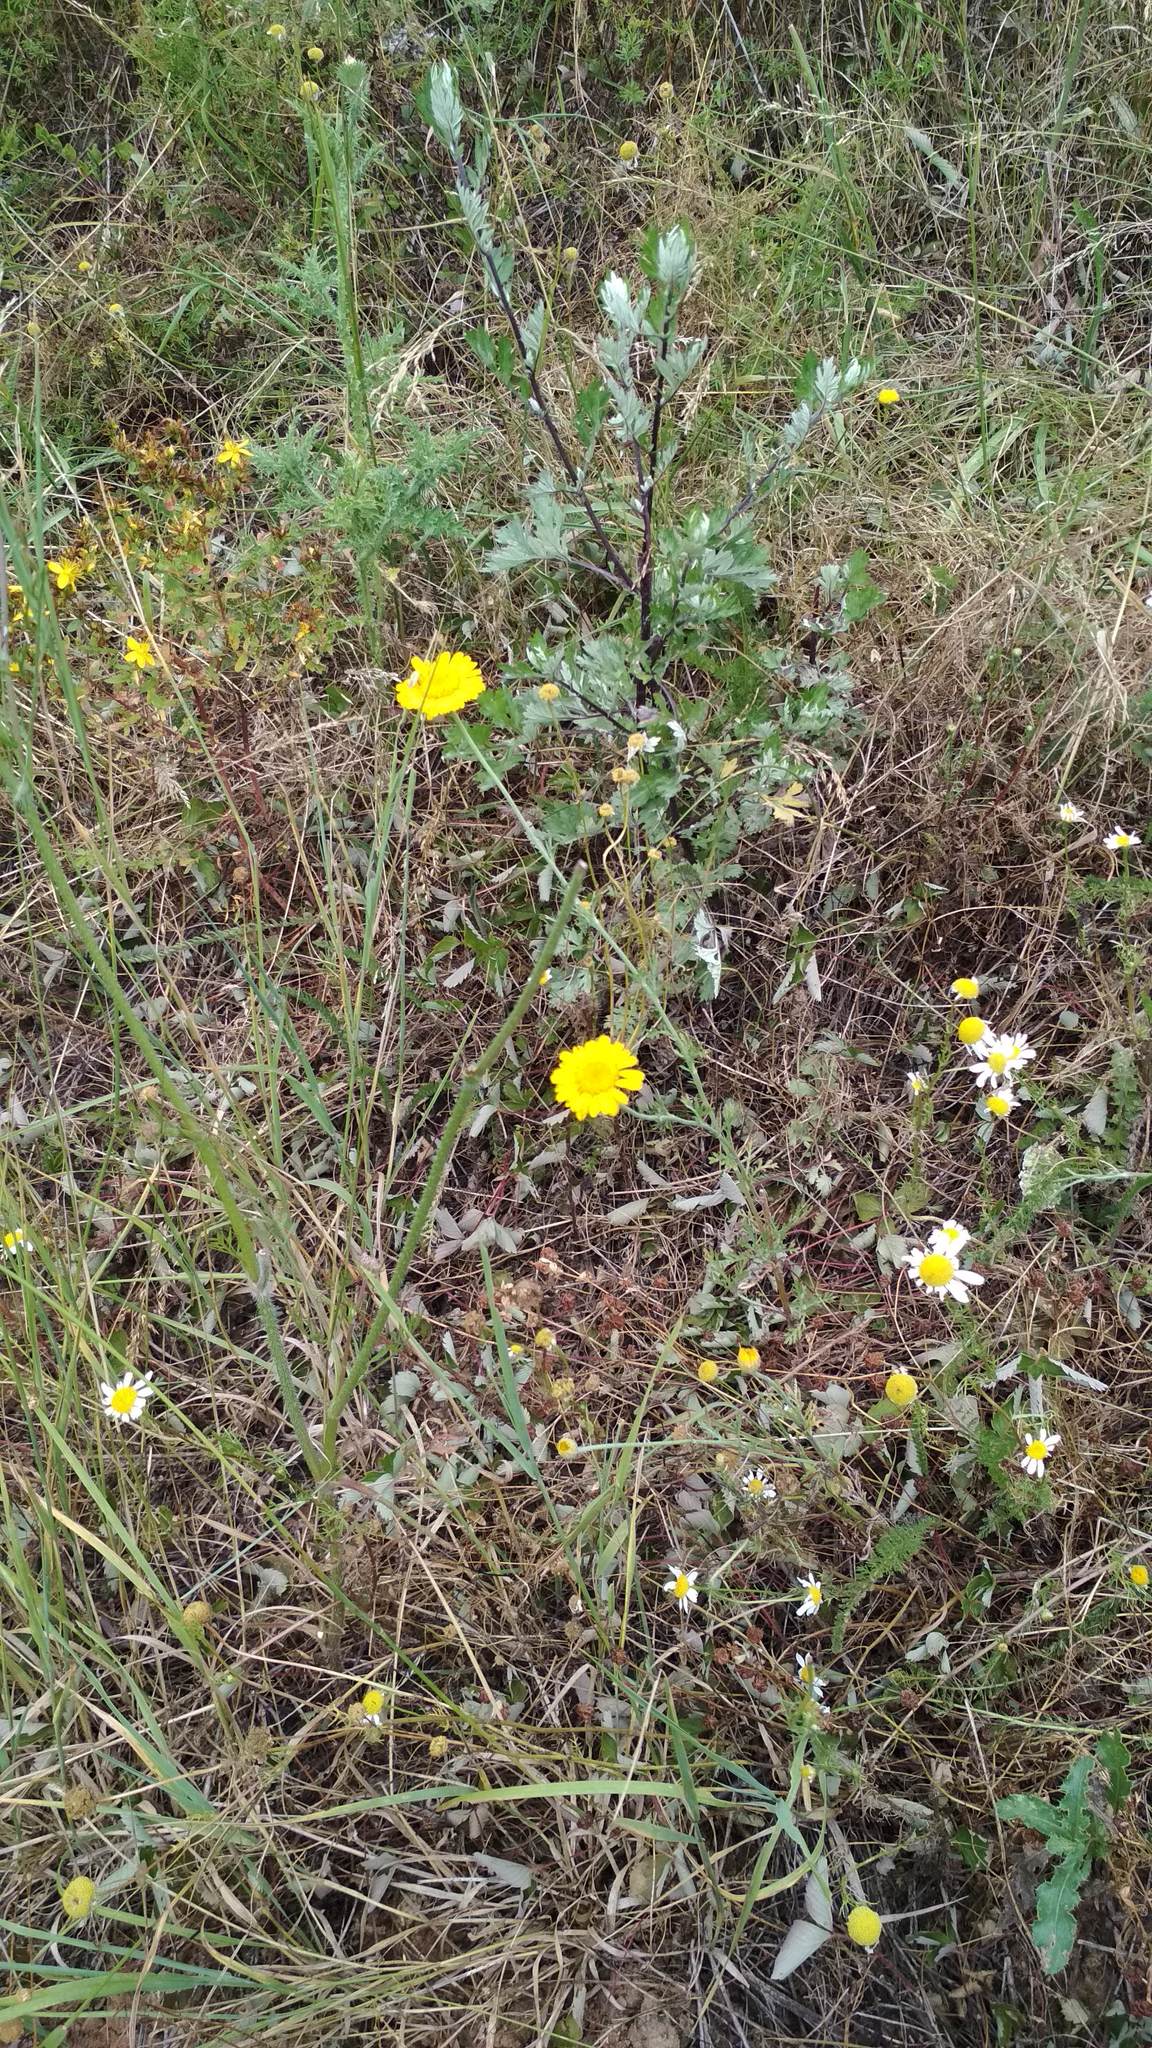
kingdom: Plantae
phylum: Tracheophyta
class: Magnoliopsida
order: Asterales
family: Asteraceae
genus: Cota
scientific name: Cota tinctoria
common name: Golden chamomile
